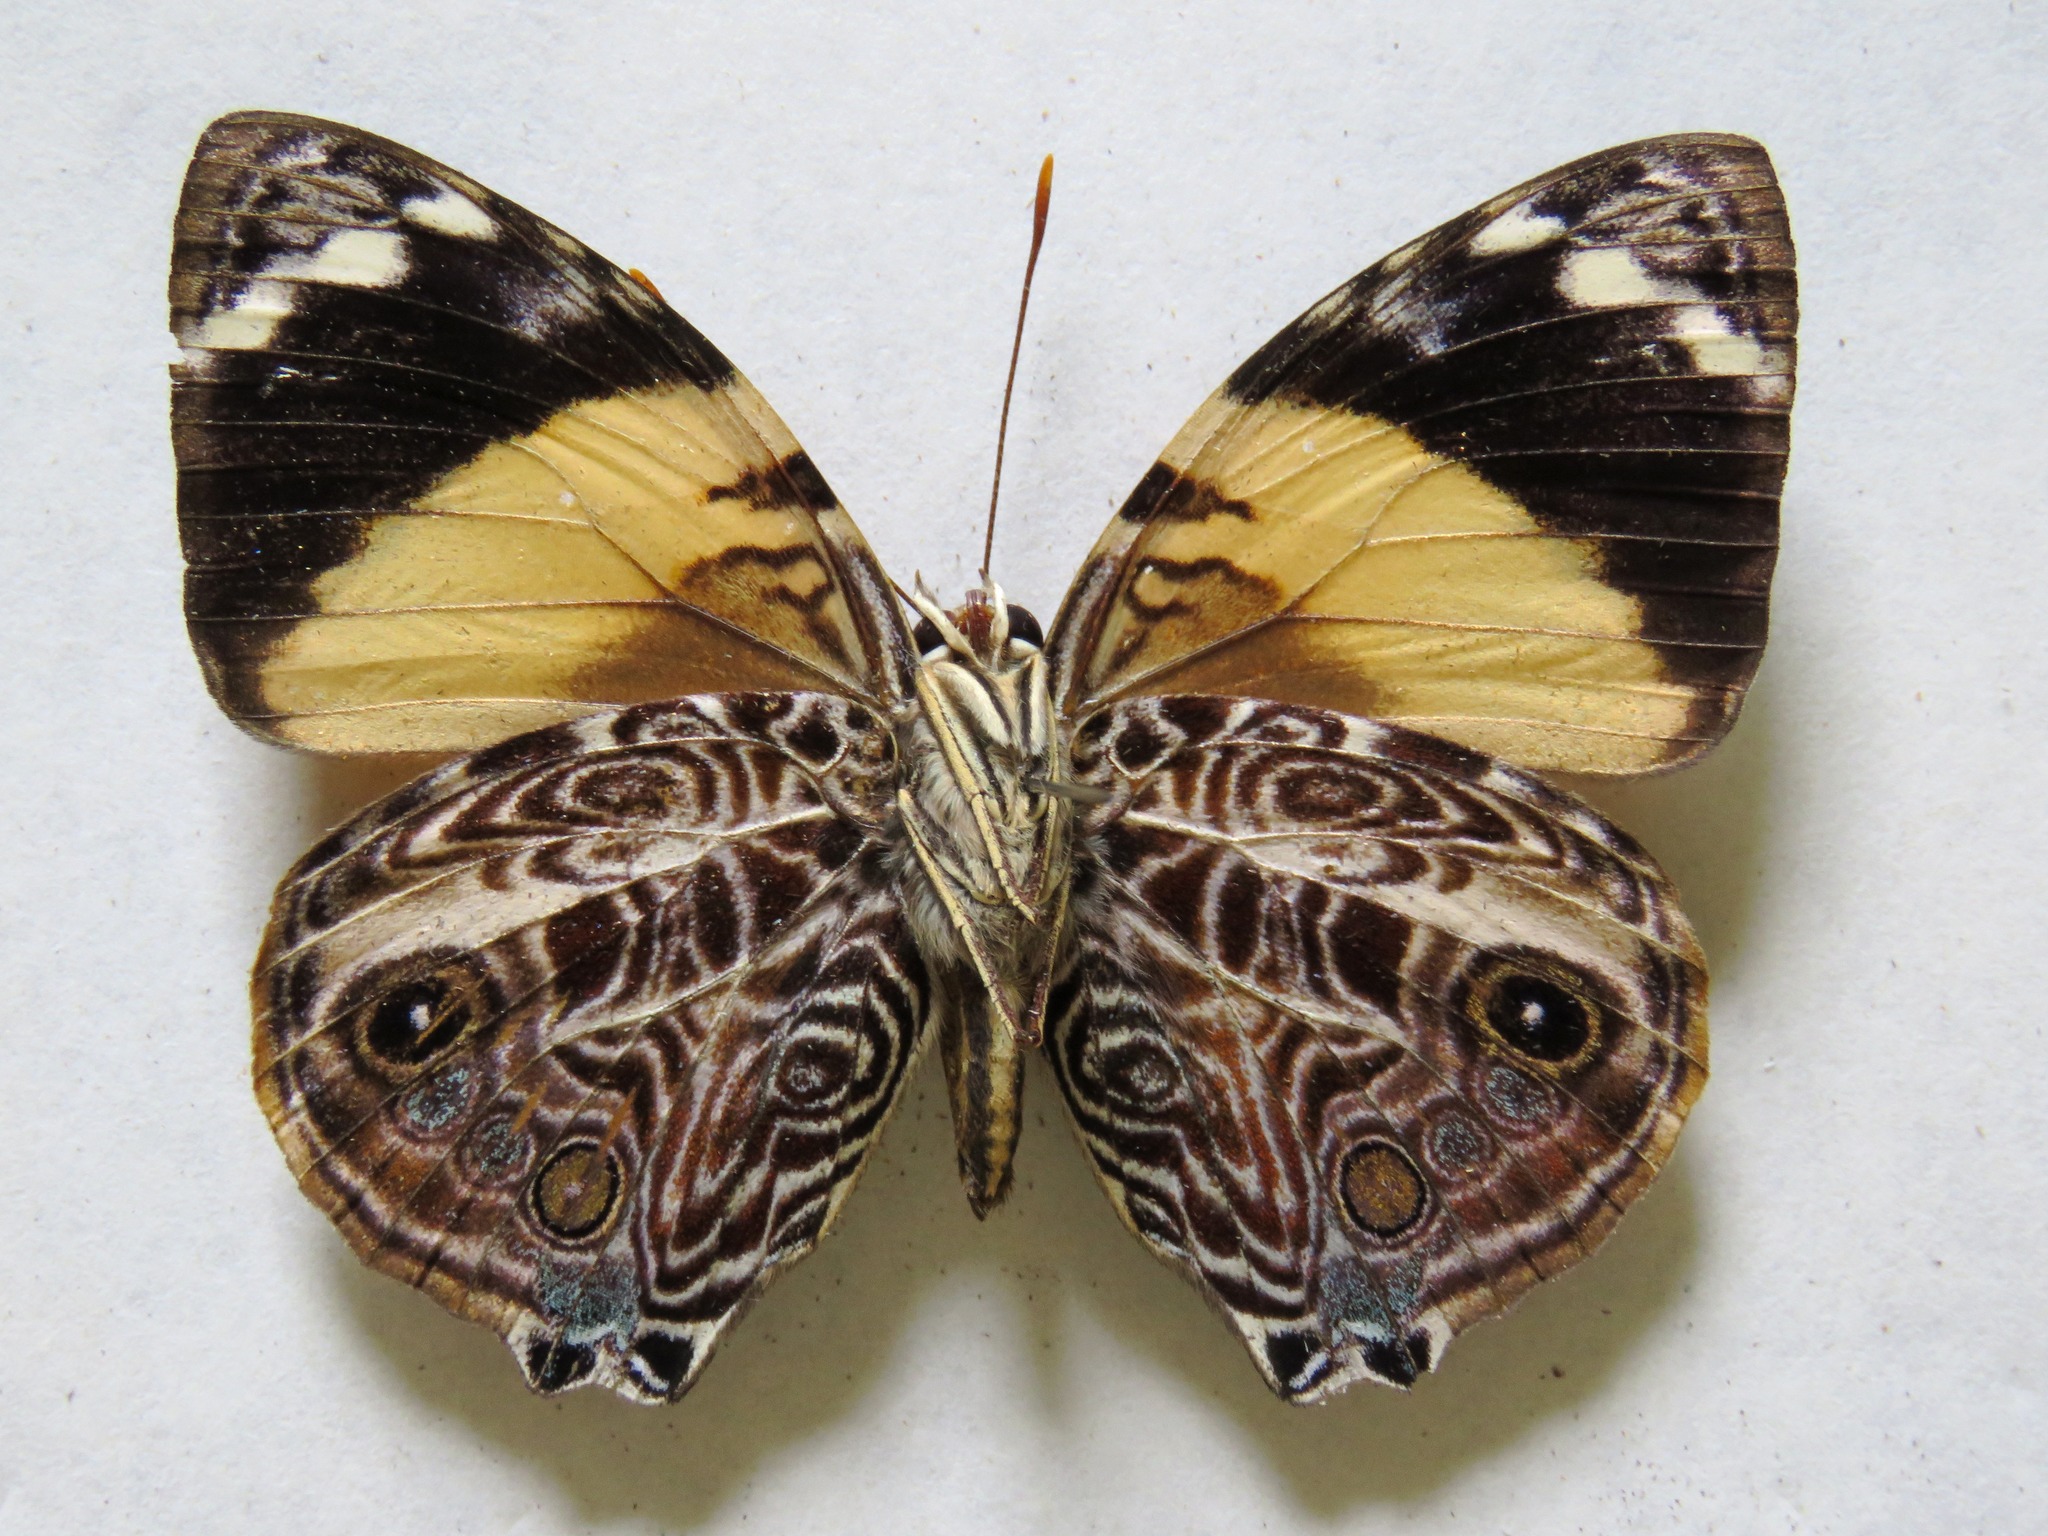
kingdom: Animalia
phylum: Arthropoda
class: Insecta
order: Lepidoptera
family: Nymphalidae
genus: Smyrna
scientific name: Smyrna blomfildia
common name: Blomfild's beauty
